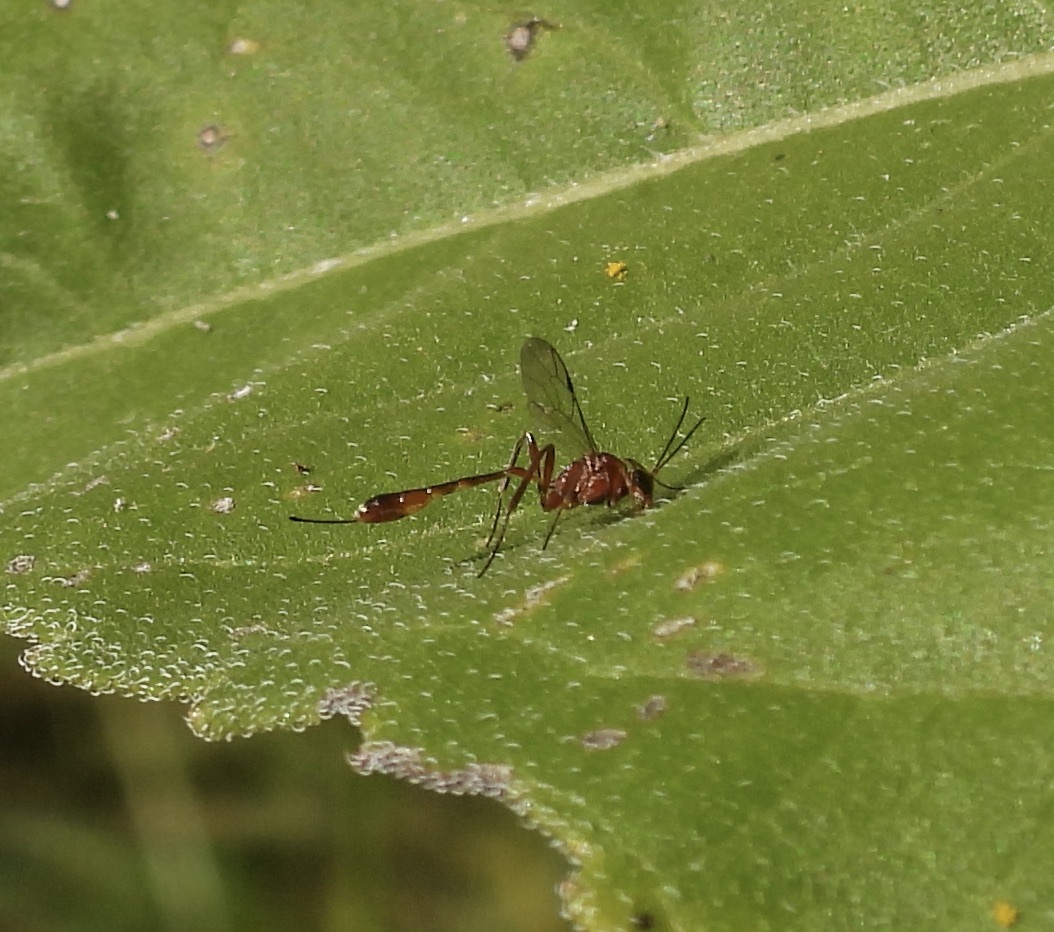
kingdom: Animalia
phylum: Arthropoda
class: Insecta
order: Hymenoptera
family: Ichneumonidae
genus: Anomalon
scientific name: Anomalon
